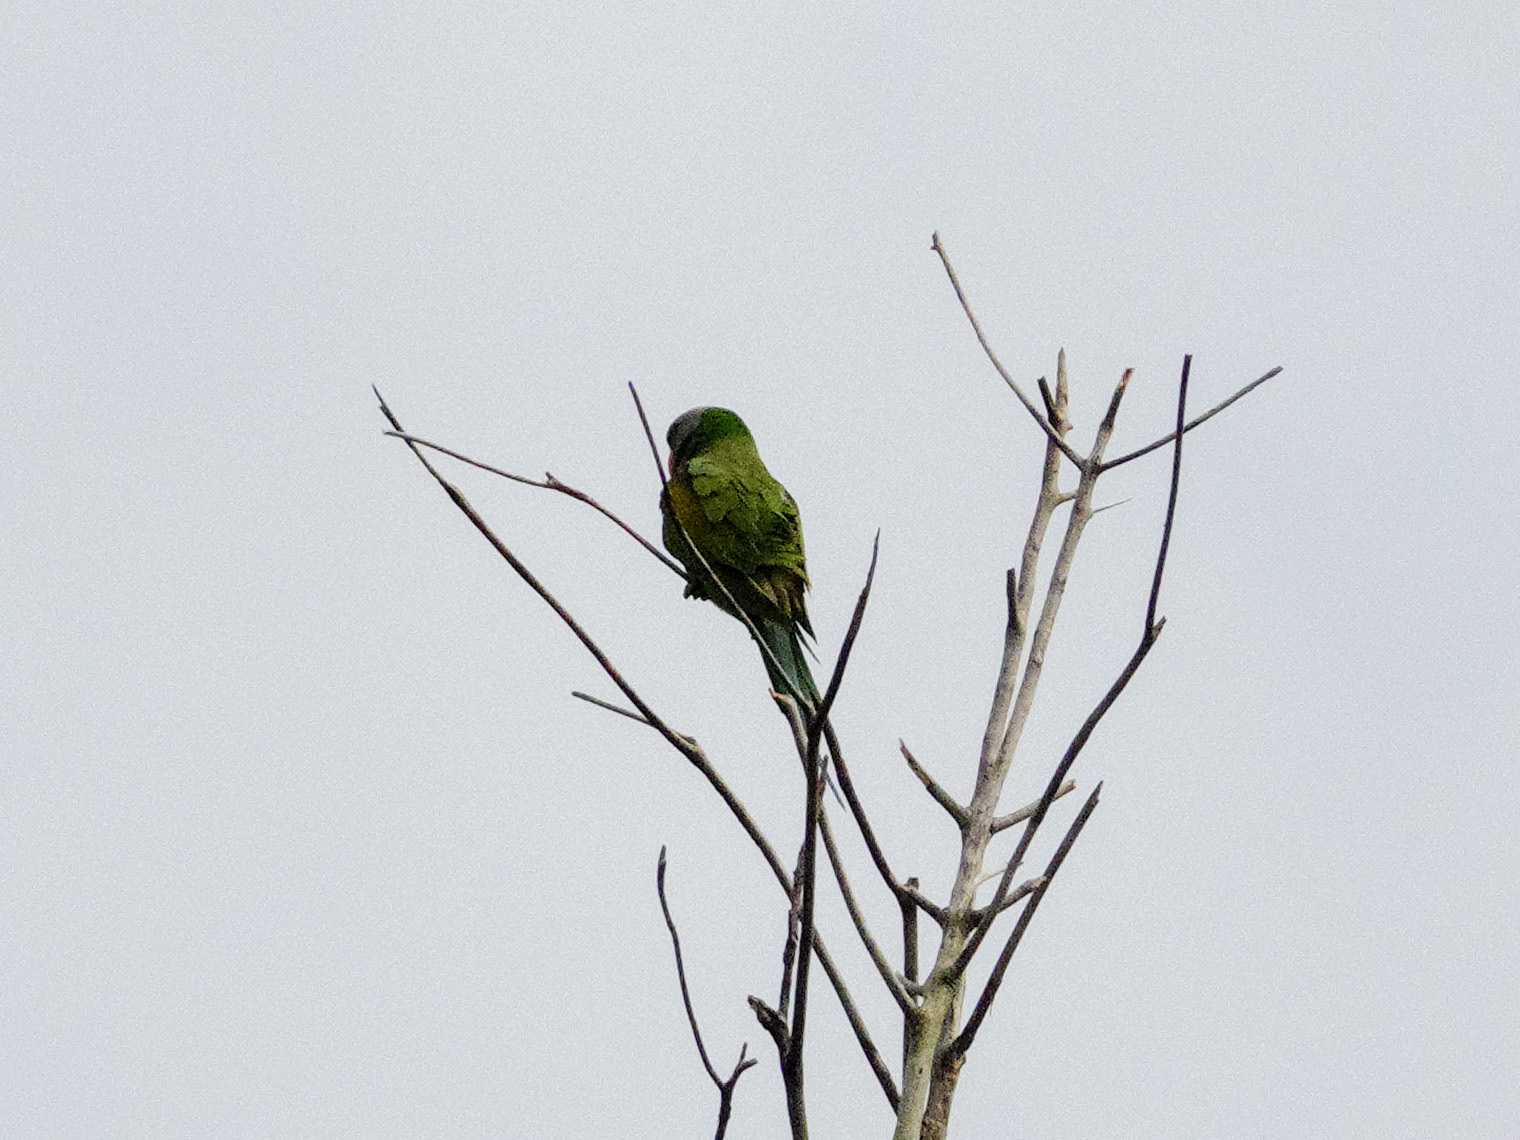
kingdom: Animalia
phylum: Chordata
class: Aves
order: Psittaciformes
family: Psittacidae
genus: Psittacula
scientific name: Psittacula alexandri
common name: Red-breasted parakeet
